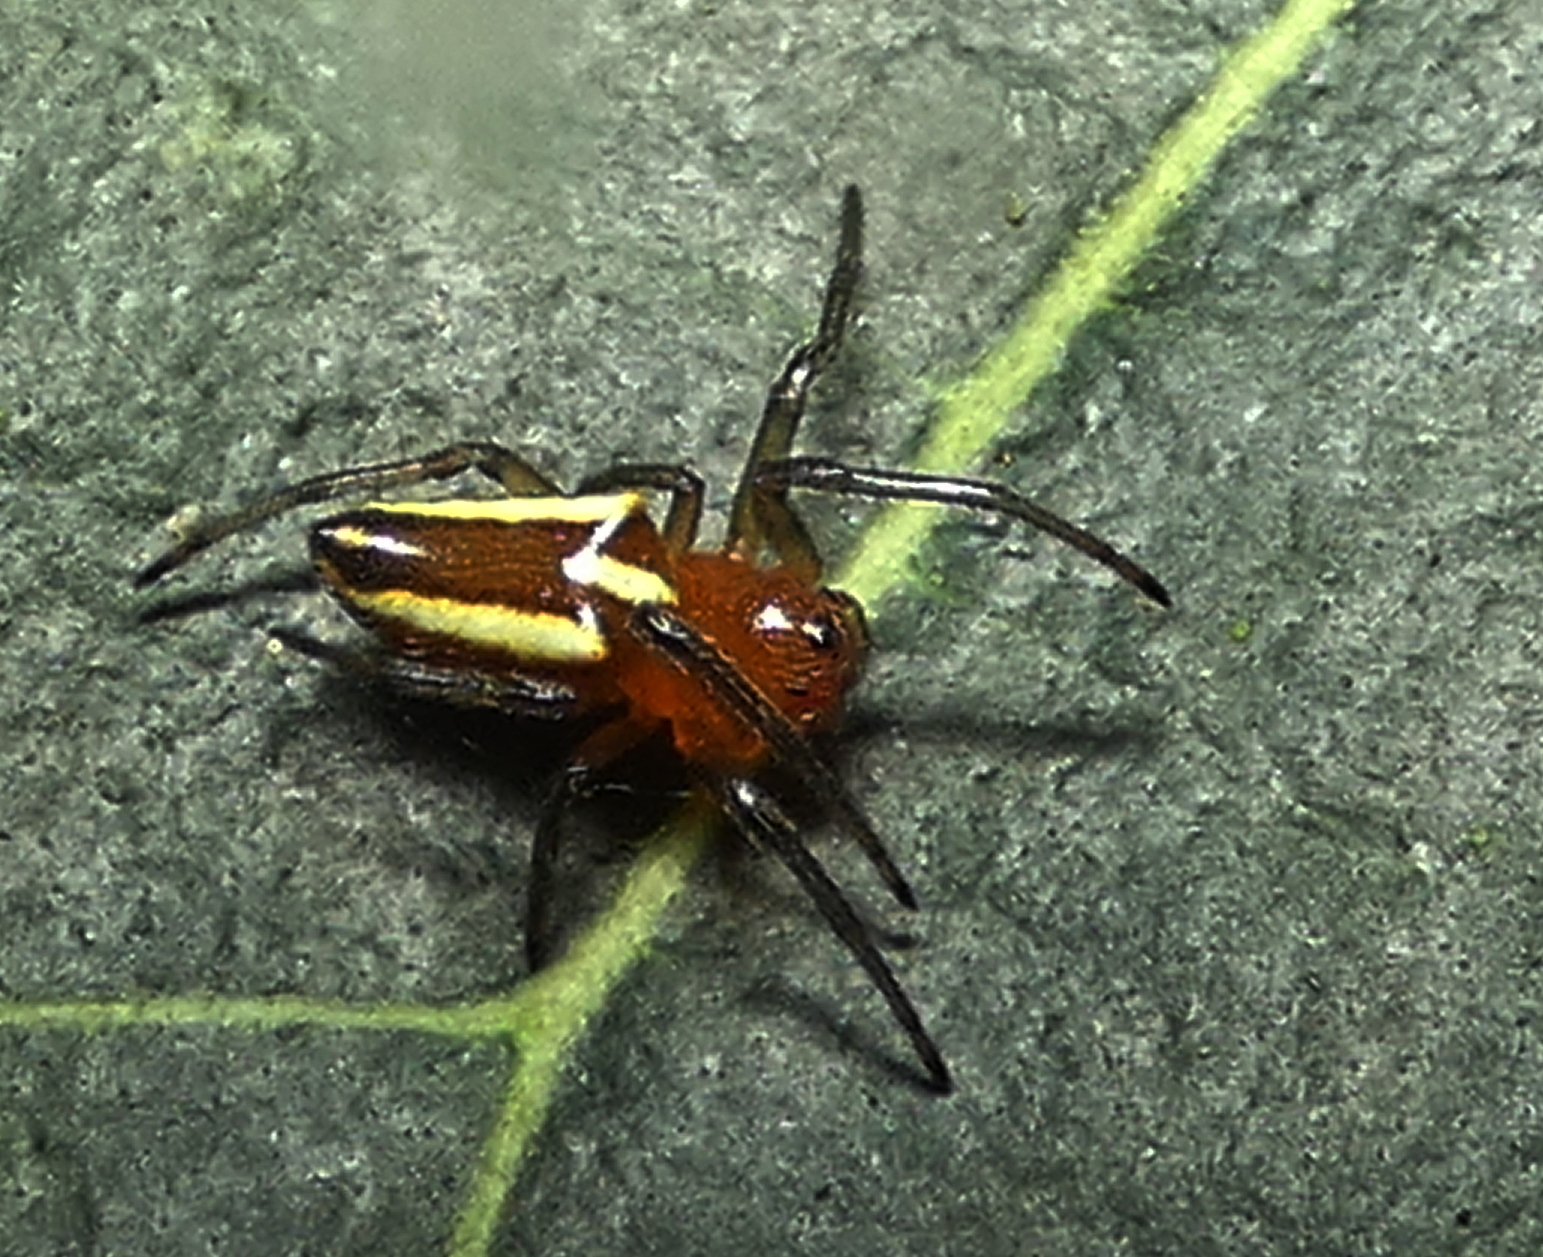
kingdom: Animalia
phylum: Arthropoda
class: Arachnida
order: Araneae
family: Araneidae
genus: Alpaida
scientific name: Alpaida bicornuta
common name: Orb weavers
